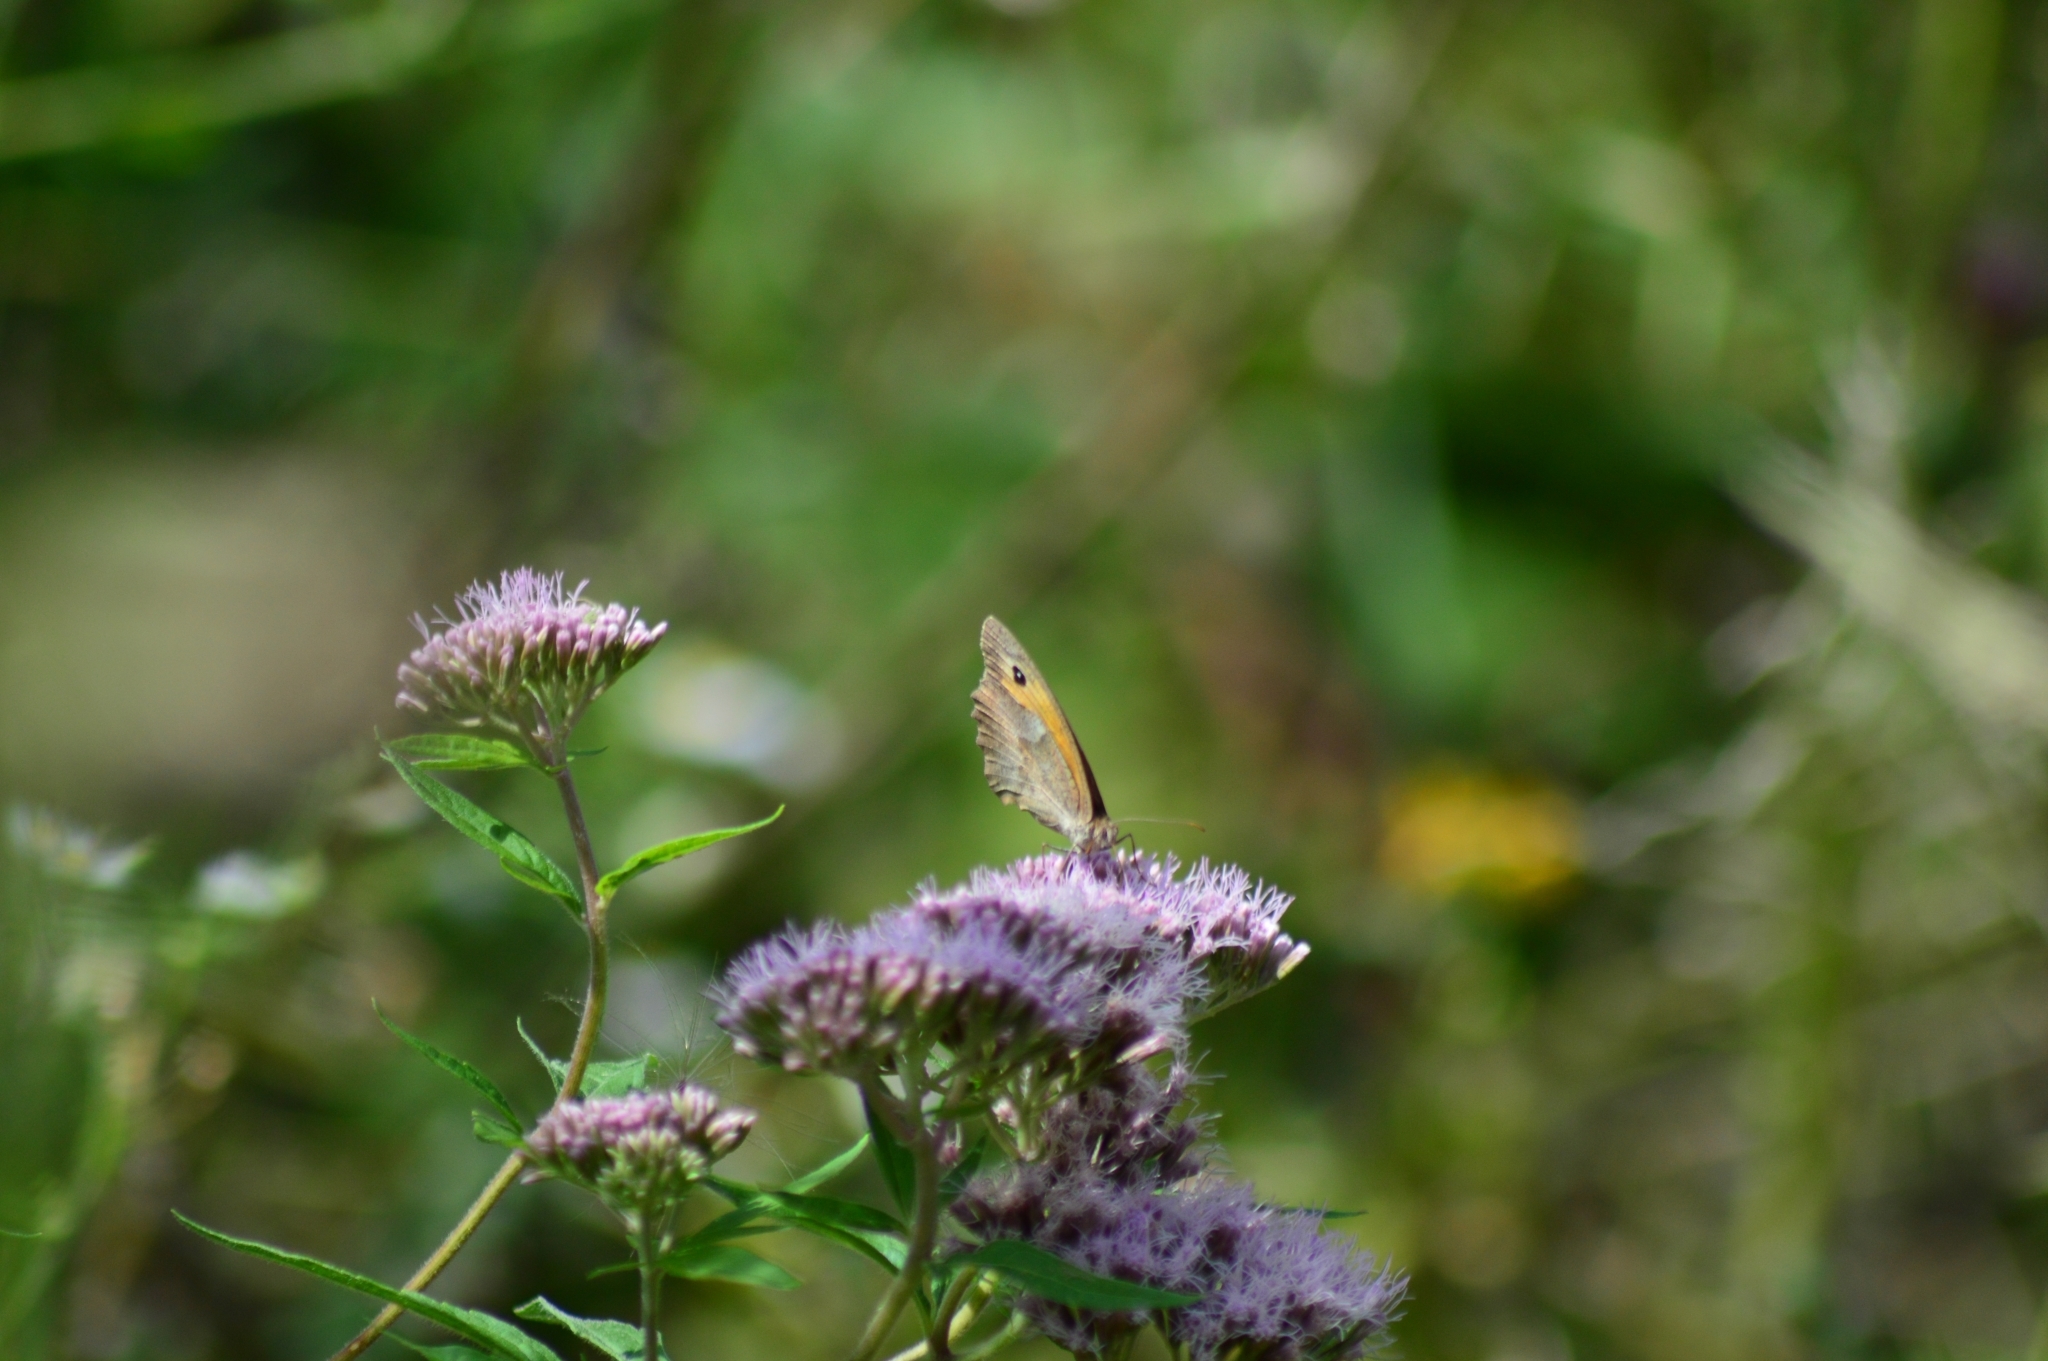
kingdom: Animalia
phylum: Arthropoda
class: Insecta
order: Lepidoptera
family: Nymphalidae
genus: Maniola
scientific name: Maniola jurtina
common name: Meadow brown
